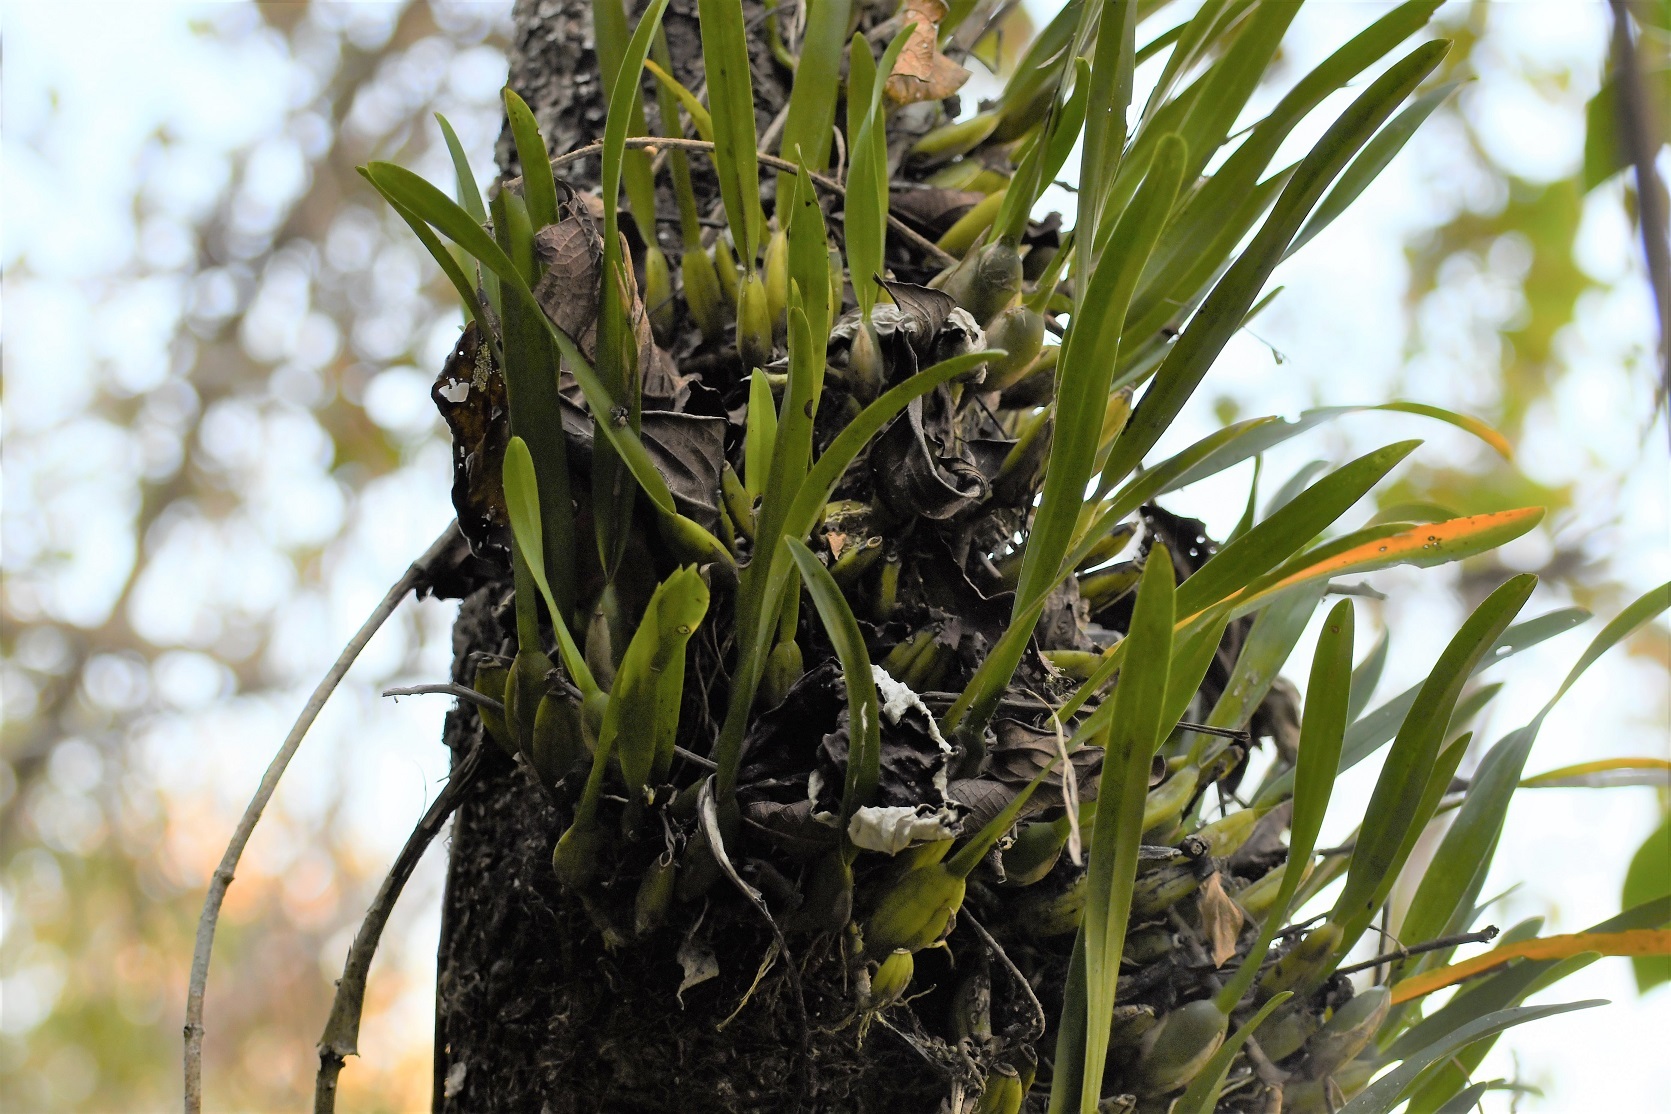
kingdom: Plantae
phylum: Tracheophyta
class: Liliopsida
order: Asparagales
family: Orchidaceae
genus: Nidema
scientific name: Nidema boothii
